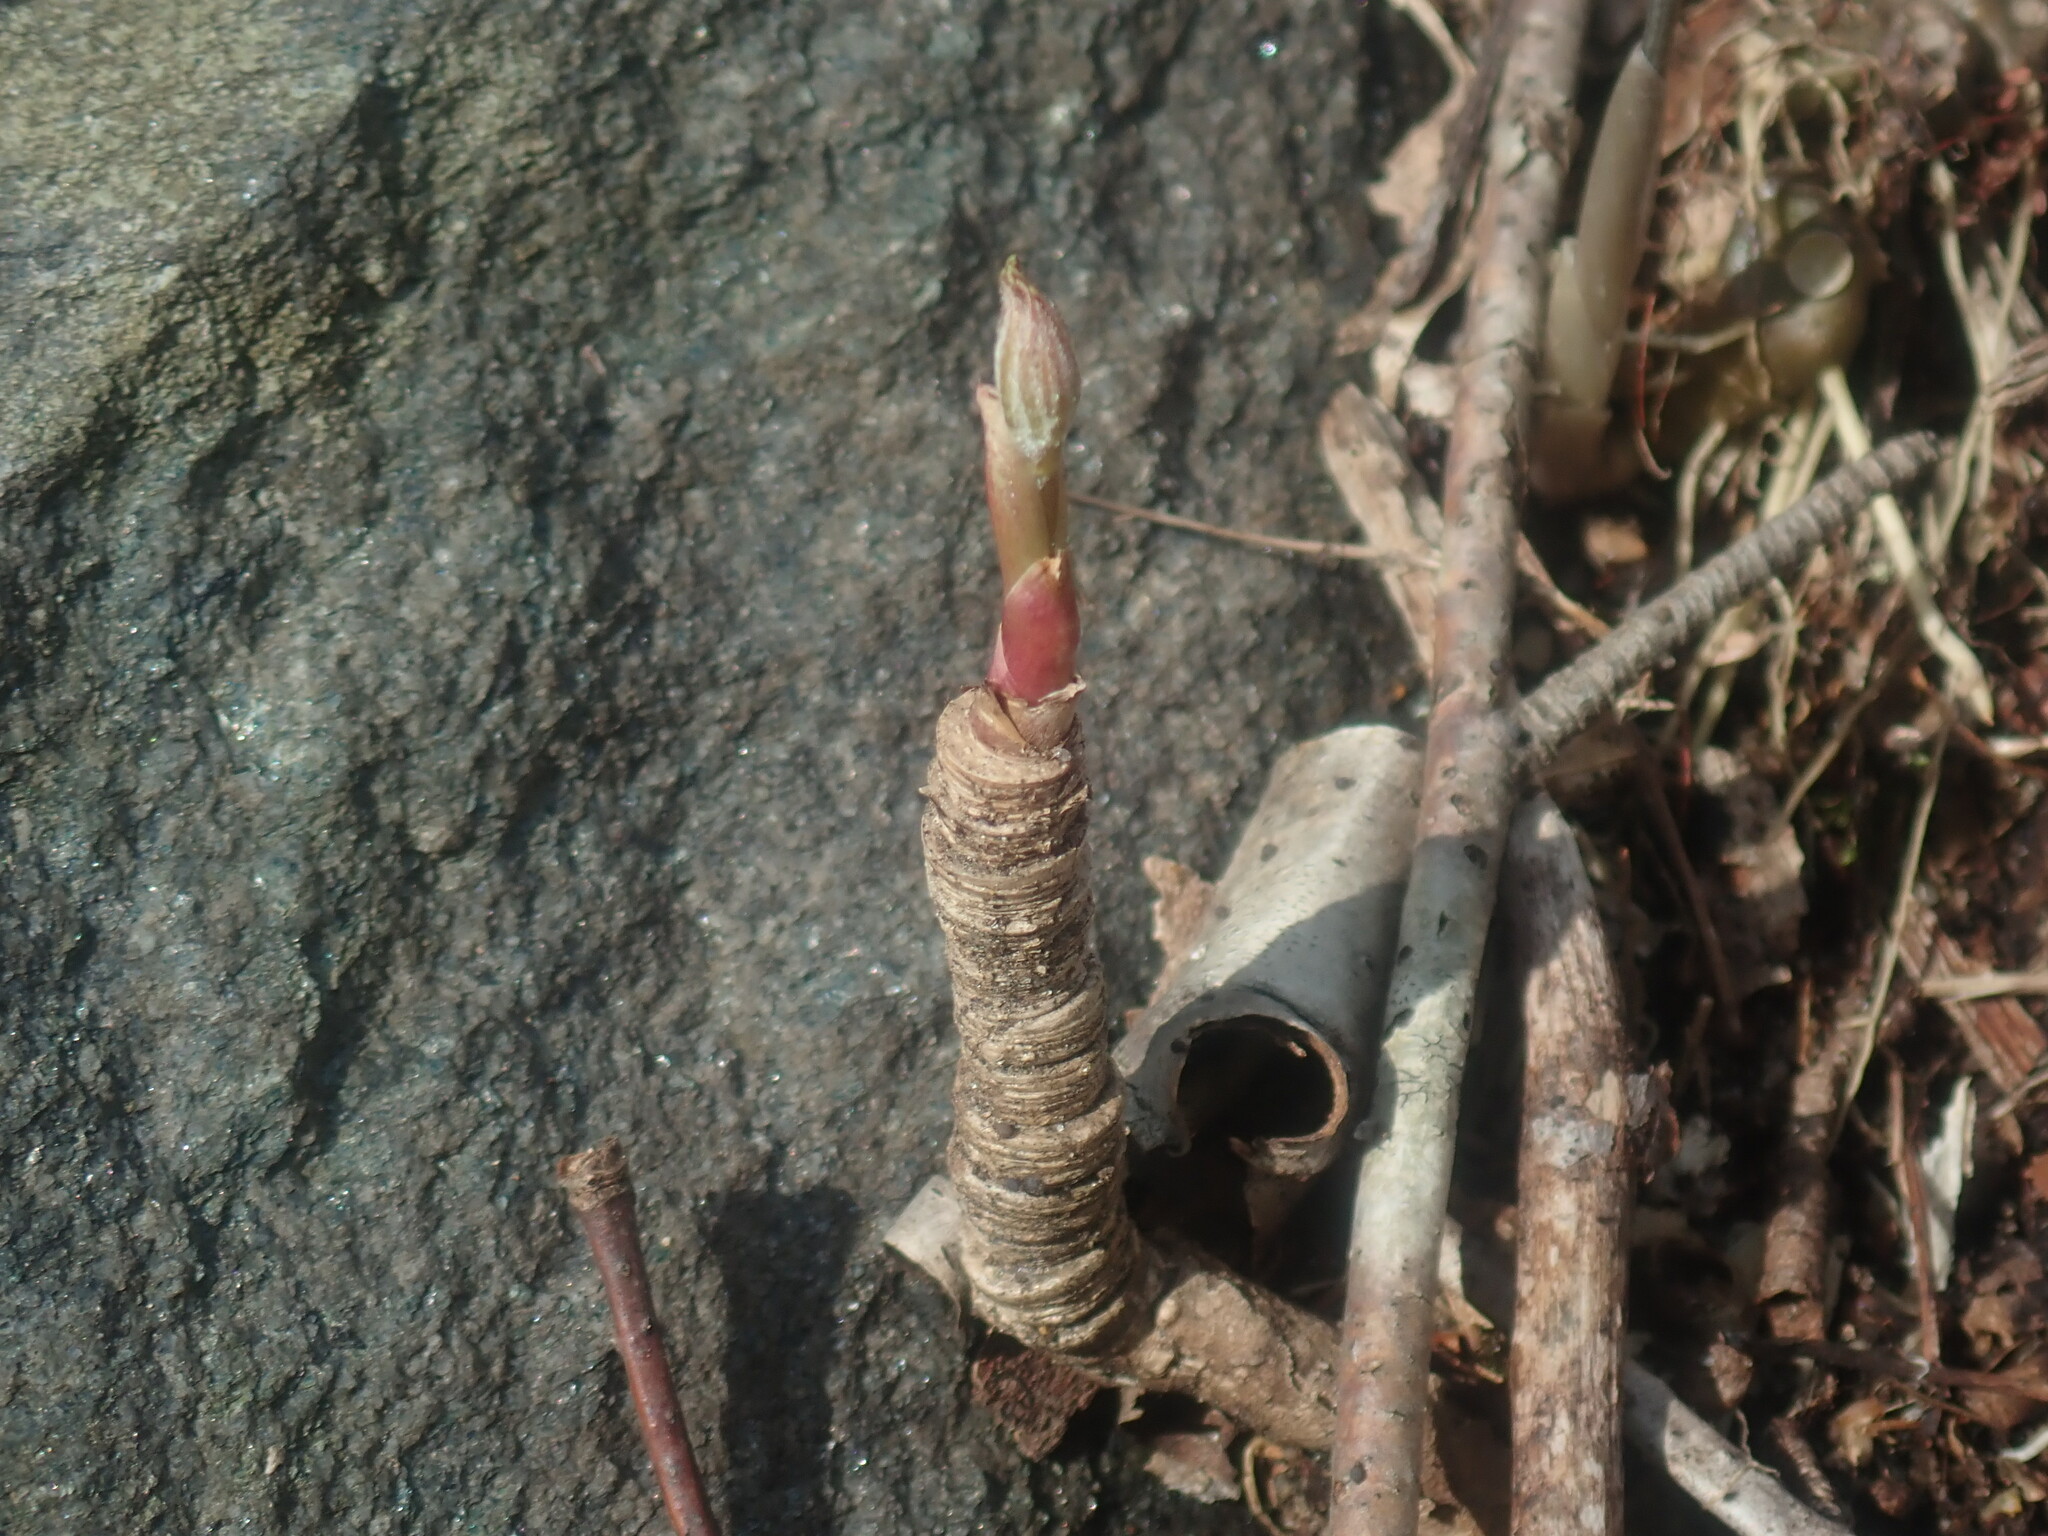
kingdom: Plantae
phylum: Tracheophyta
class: Magnoliopsida
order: Apiales
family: Araliaceae
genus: Aralia
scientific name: Aralia nudicaulis
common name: Wild sarsaparilla
